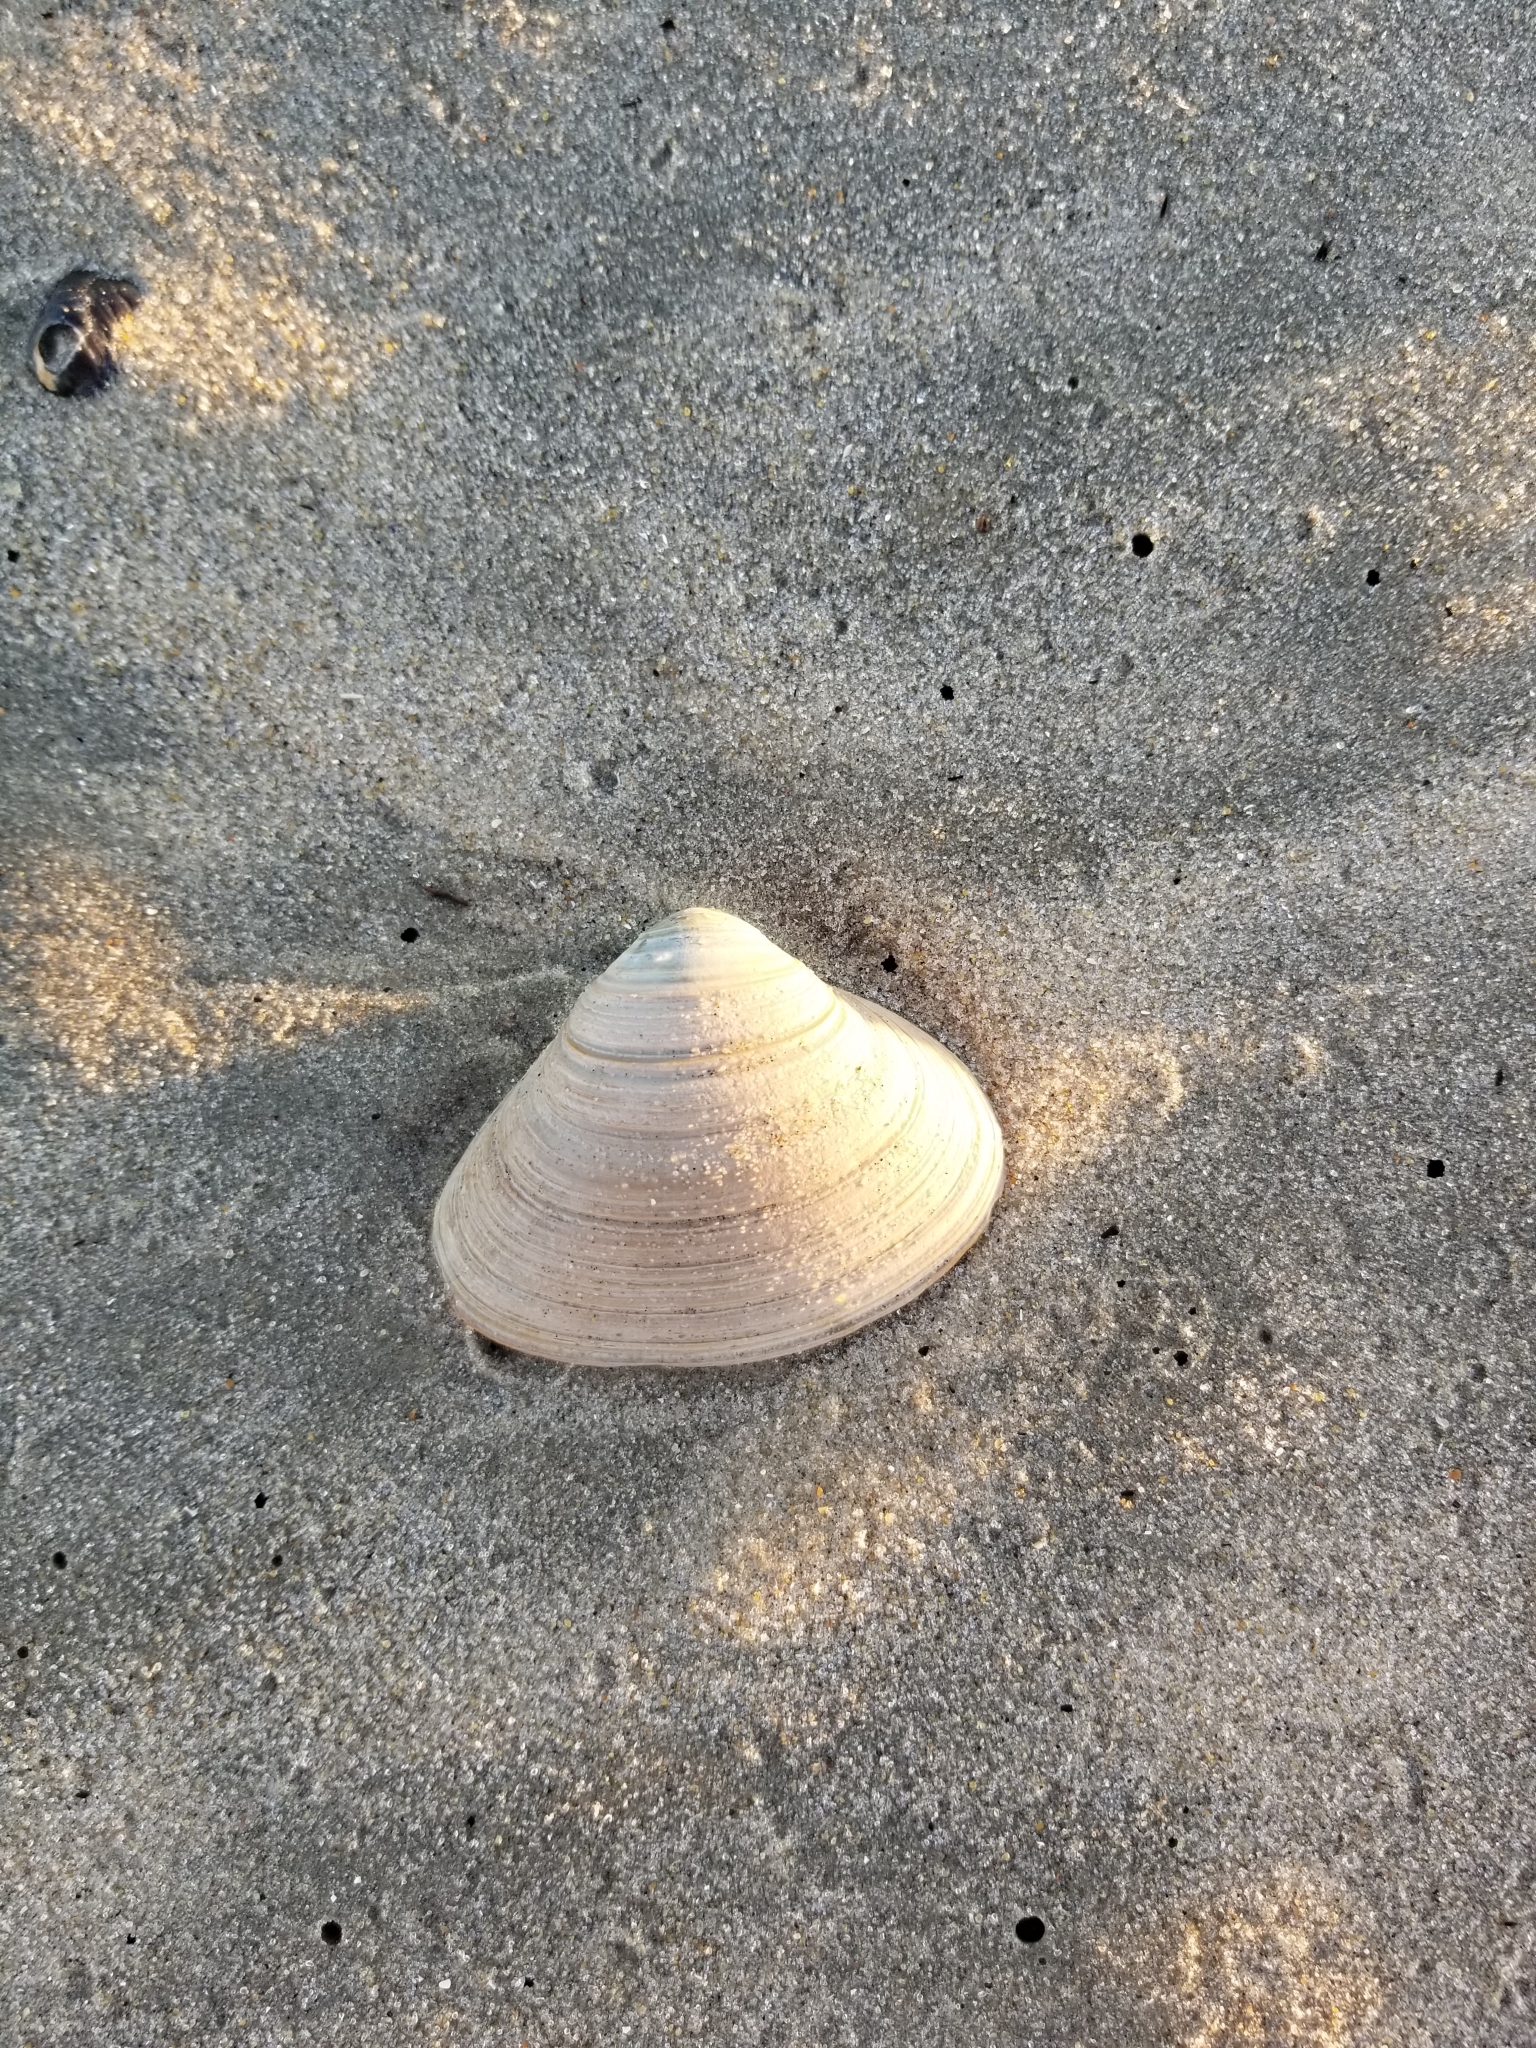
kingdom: Animalia
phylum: Mollusca
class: Bivalvia
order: Venerida
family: Mactridae
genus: Spisula
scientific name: Spisula solidissima
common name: Atlantic surf clam
